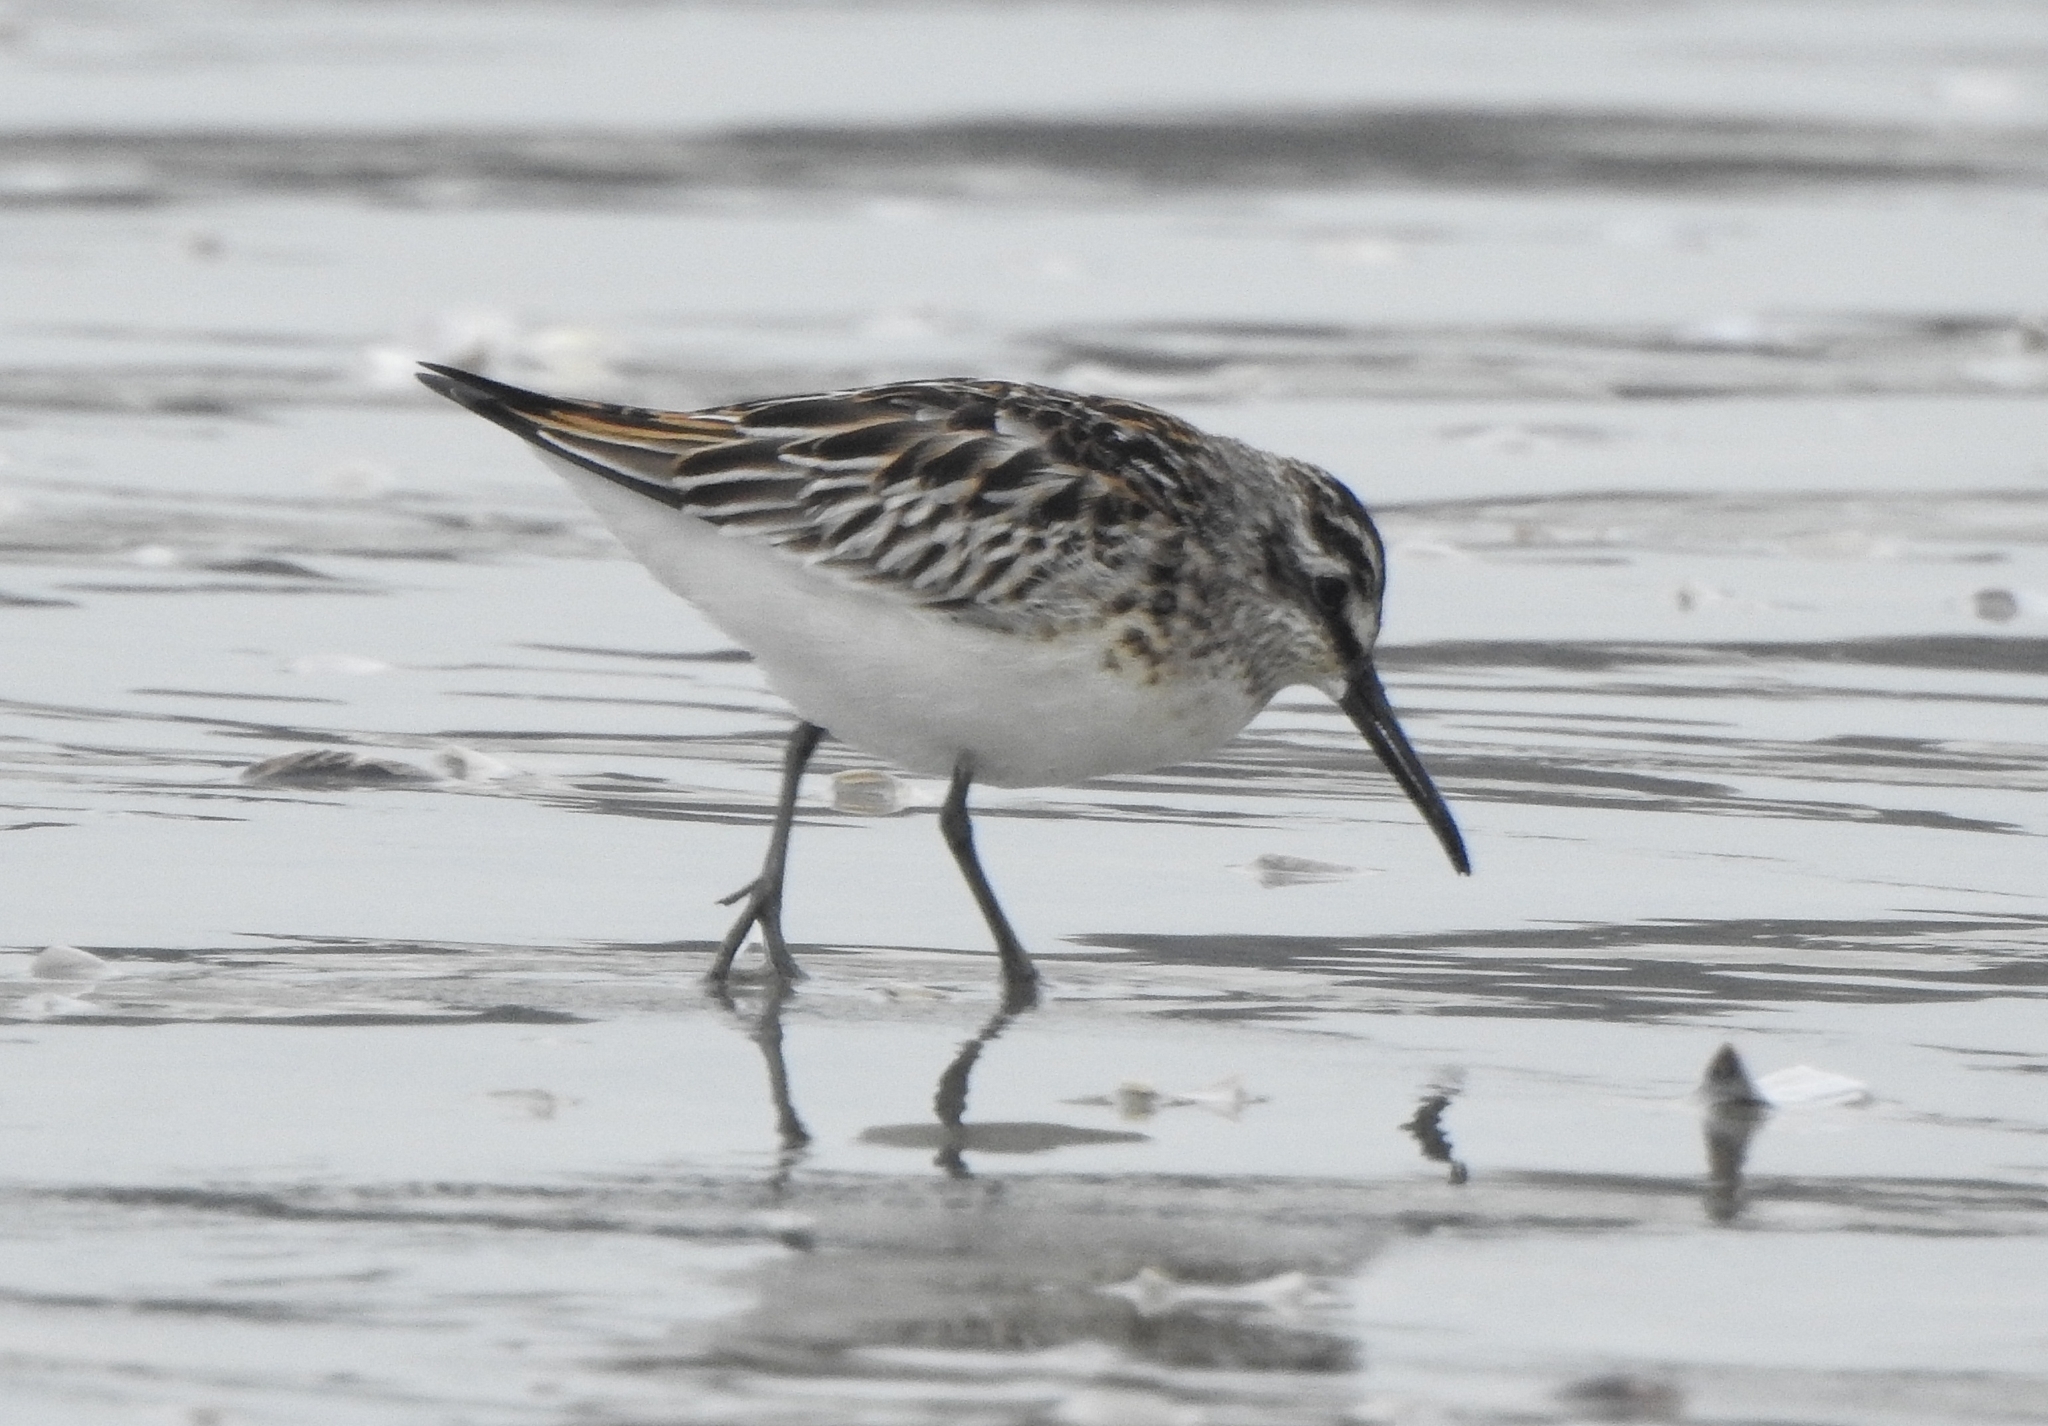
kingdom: Animalia
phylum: Chordata
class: Aves
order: Charadriiformes
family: Scolopacidae
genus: Calidris
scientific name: Calidris falcinellus
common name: Broad-billed sandpiper
